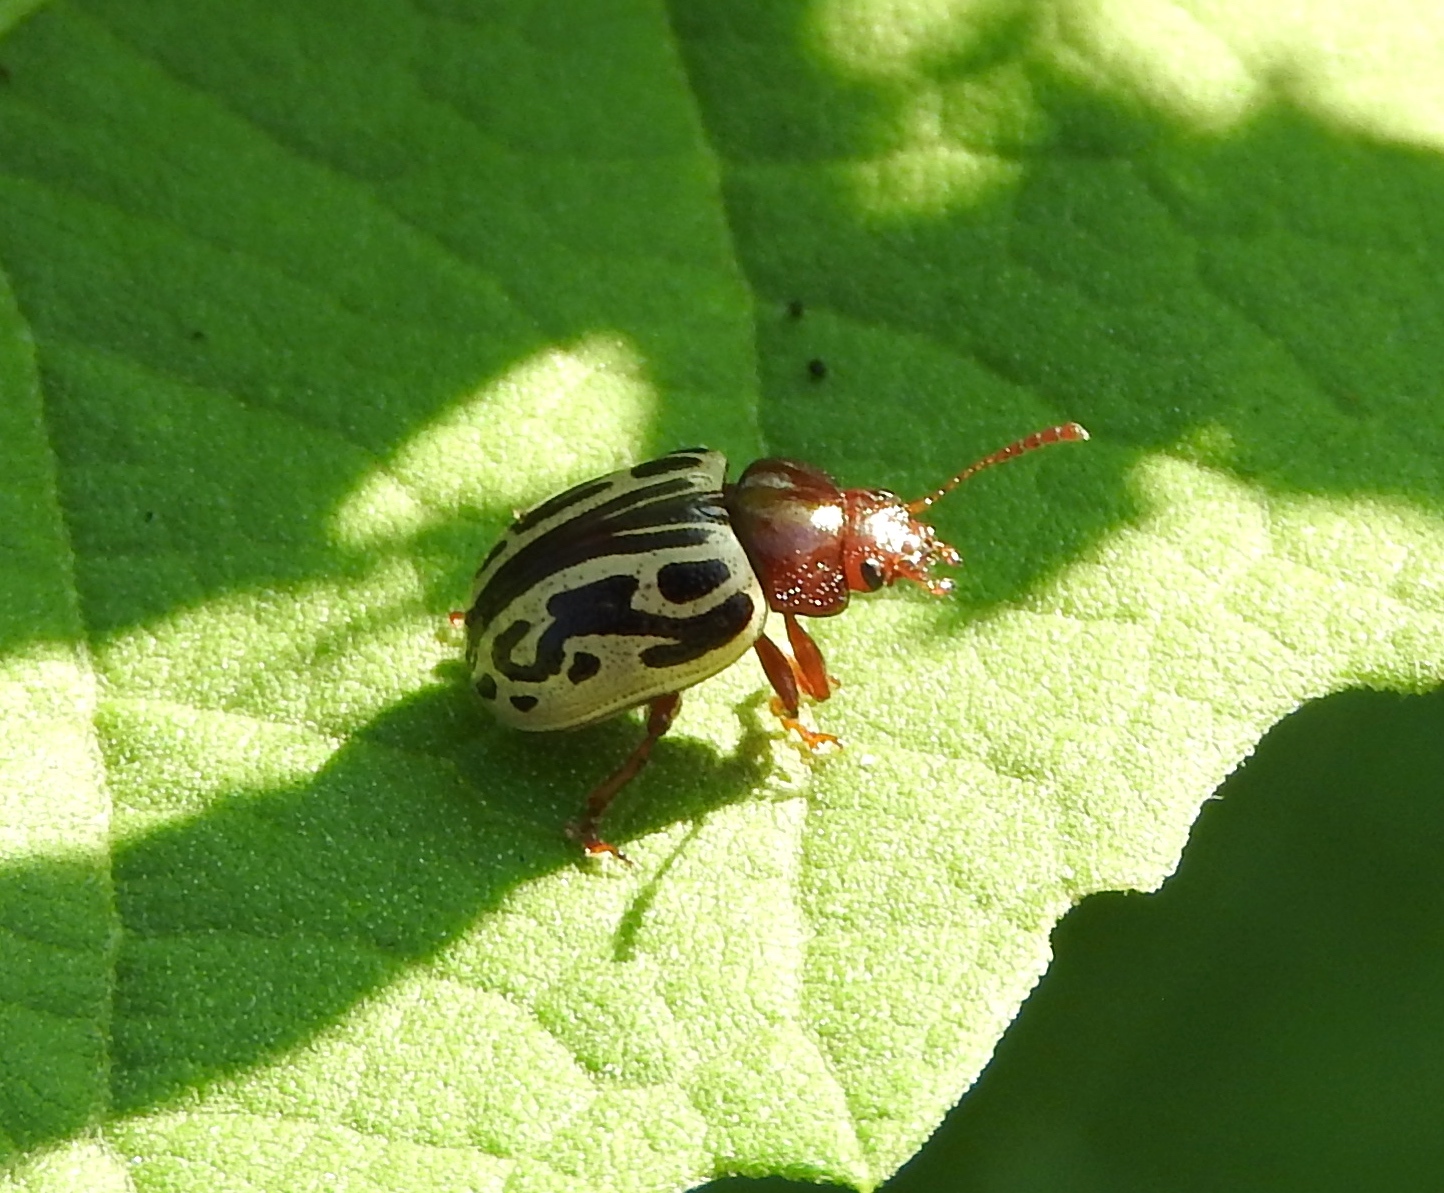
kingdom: Animalia
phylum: Arthropoda
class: Insecta
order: Coleoptera
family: Chrysomelidae
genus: Calligrapha
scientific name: Calligrapha
